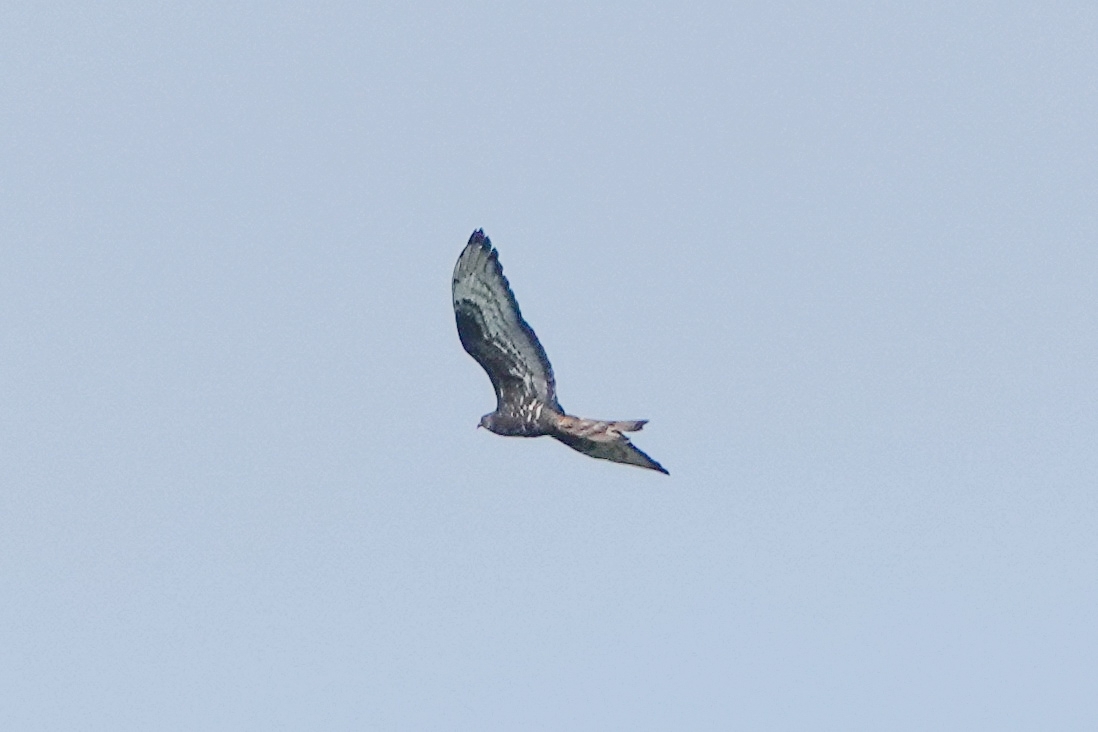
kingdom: Animalia
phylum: Chordata
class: Aves
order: Accipitriformes
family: Accipitridae
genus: Pernis
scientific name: Pernis apivorus
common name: European honey buzzard
